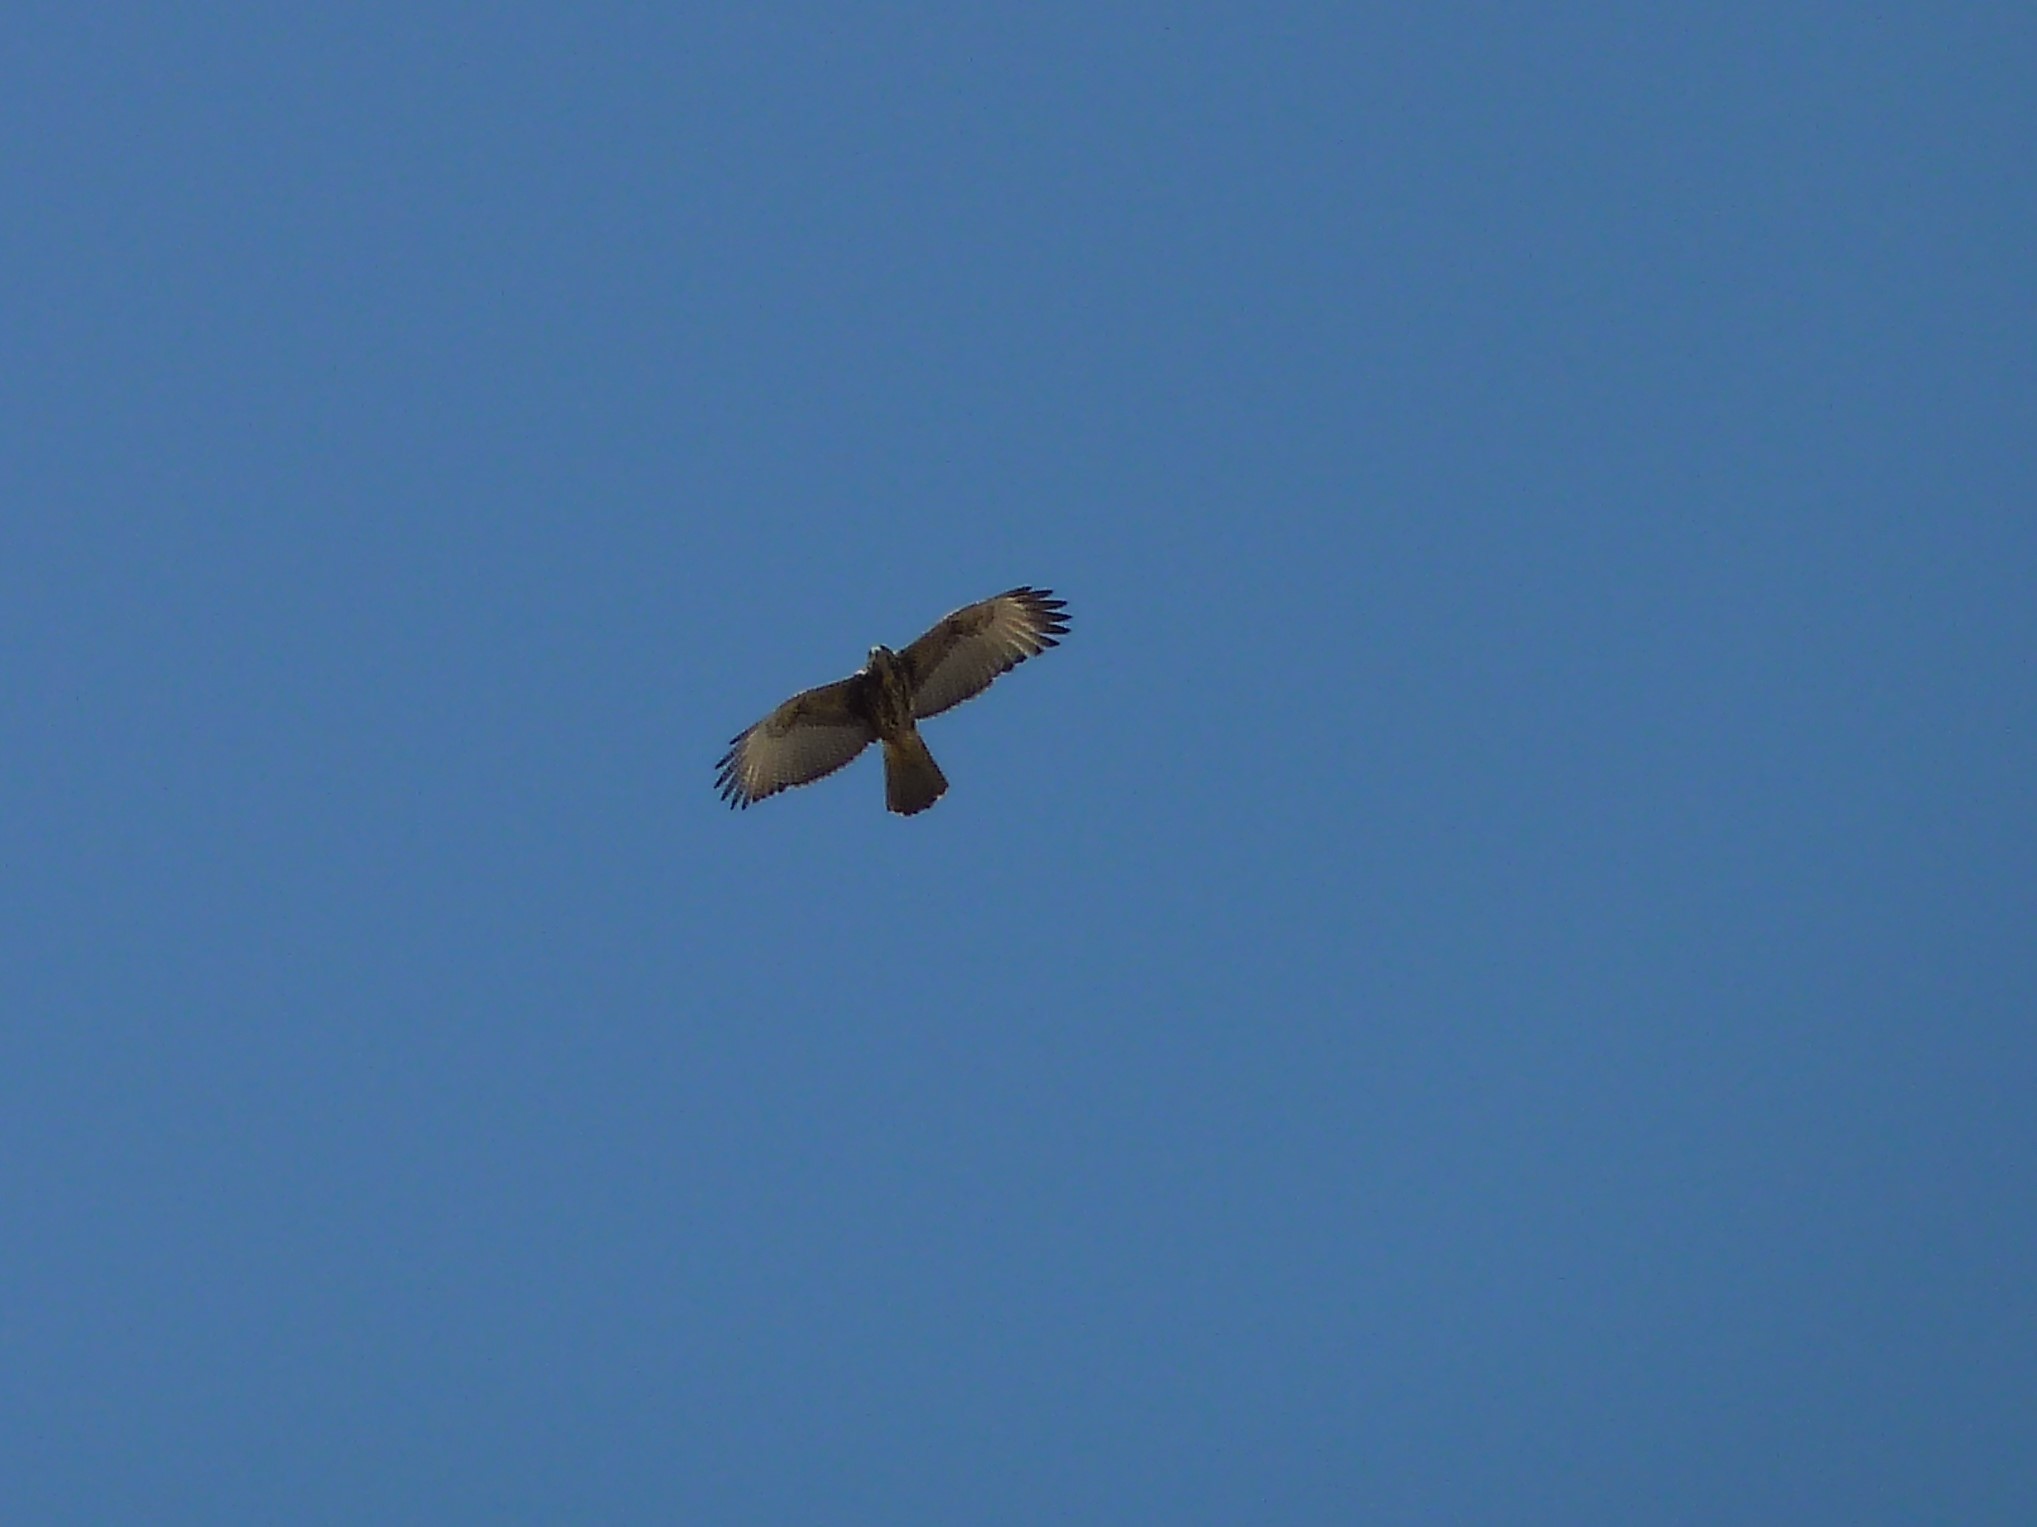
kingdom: Animalia
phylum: Chordata
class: Aves
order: Accipitriformes
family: Accipitridae
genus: Parabuteo
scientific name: Parabuteo unicinctus
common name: Harris's hawk
